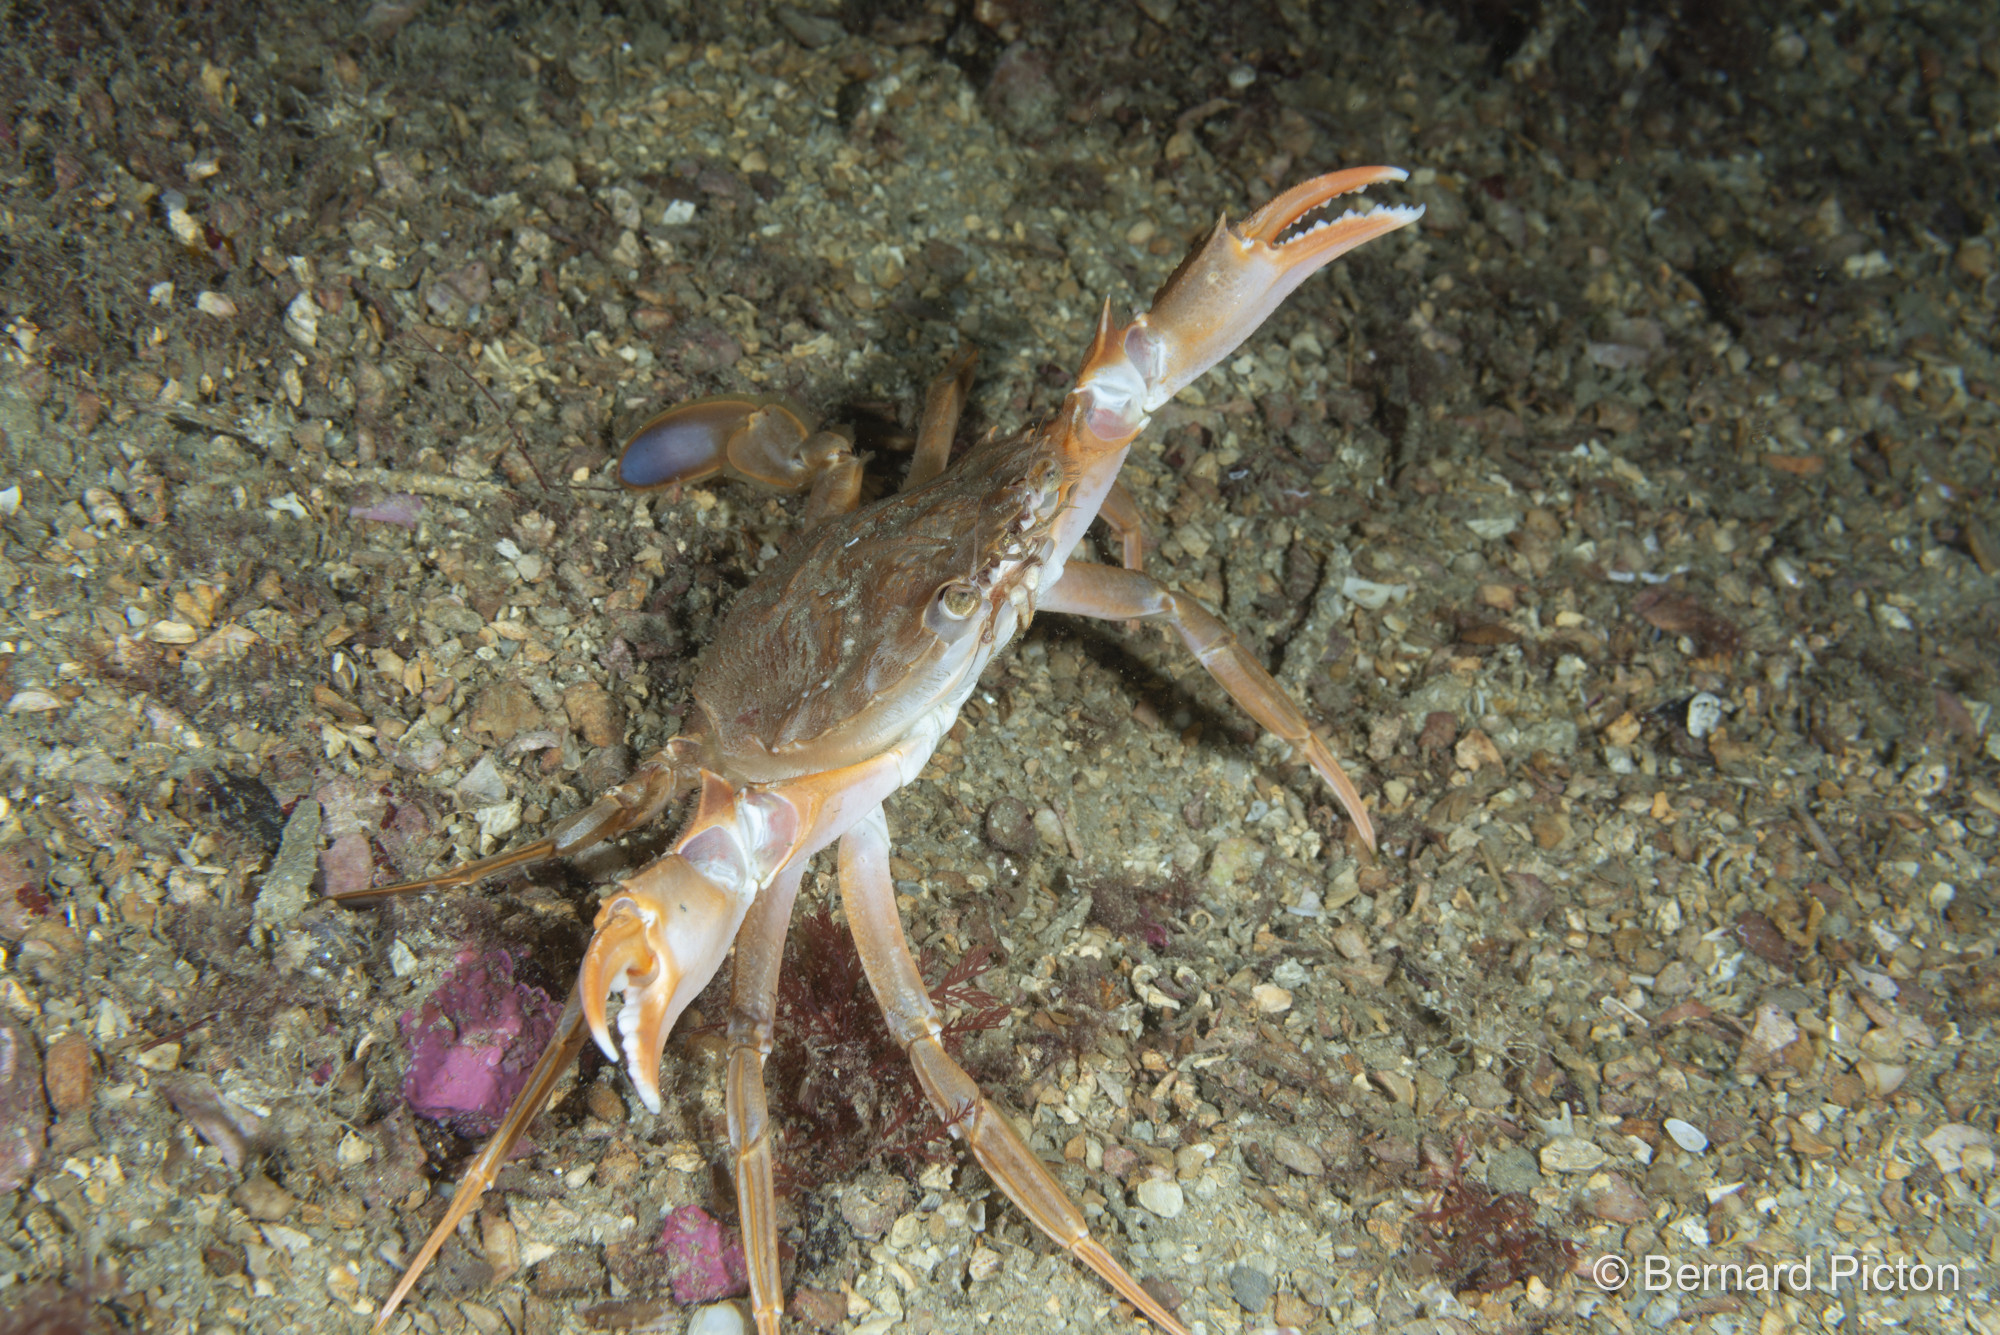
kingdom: Animalia
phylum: Arthropoda
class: Malacostraca
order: Decapoda
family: Polybiidae
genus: Liocarcinus
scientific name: Liocarcinus depurator
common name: Cleanser crab
